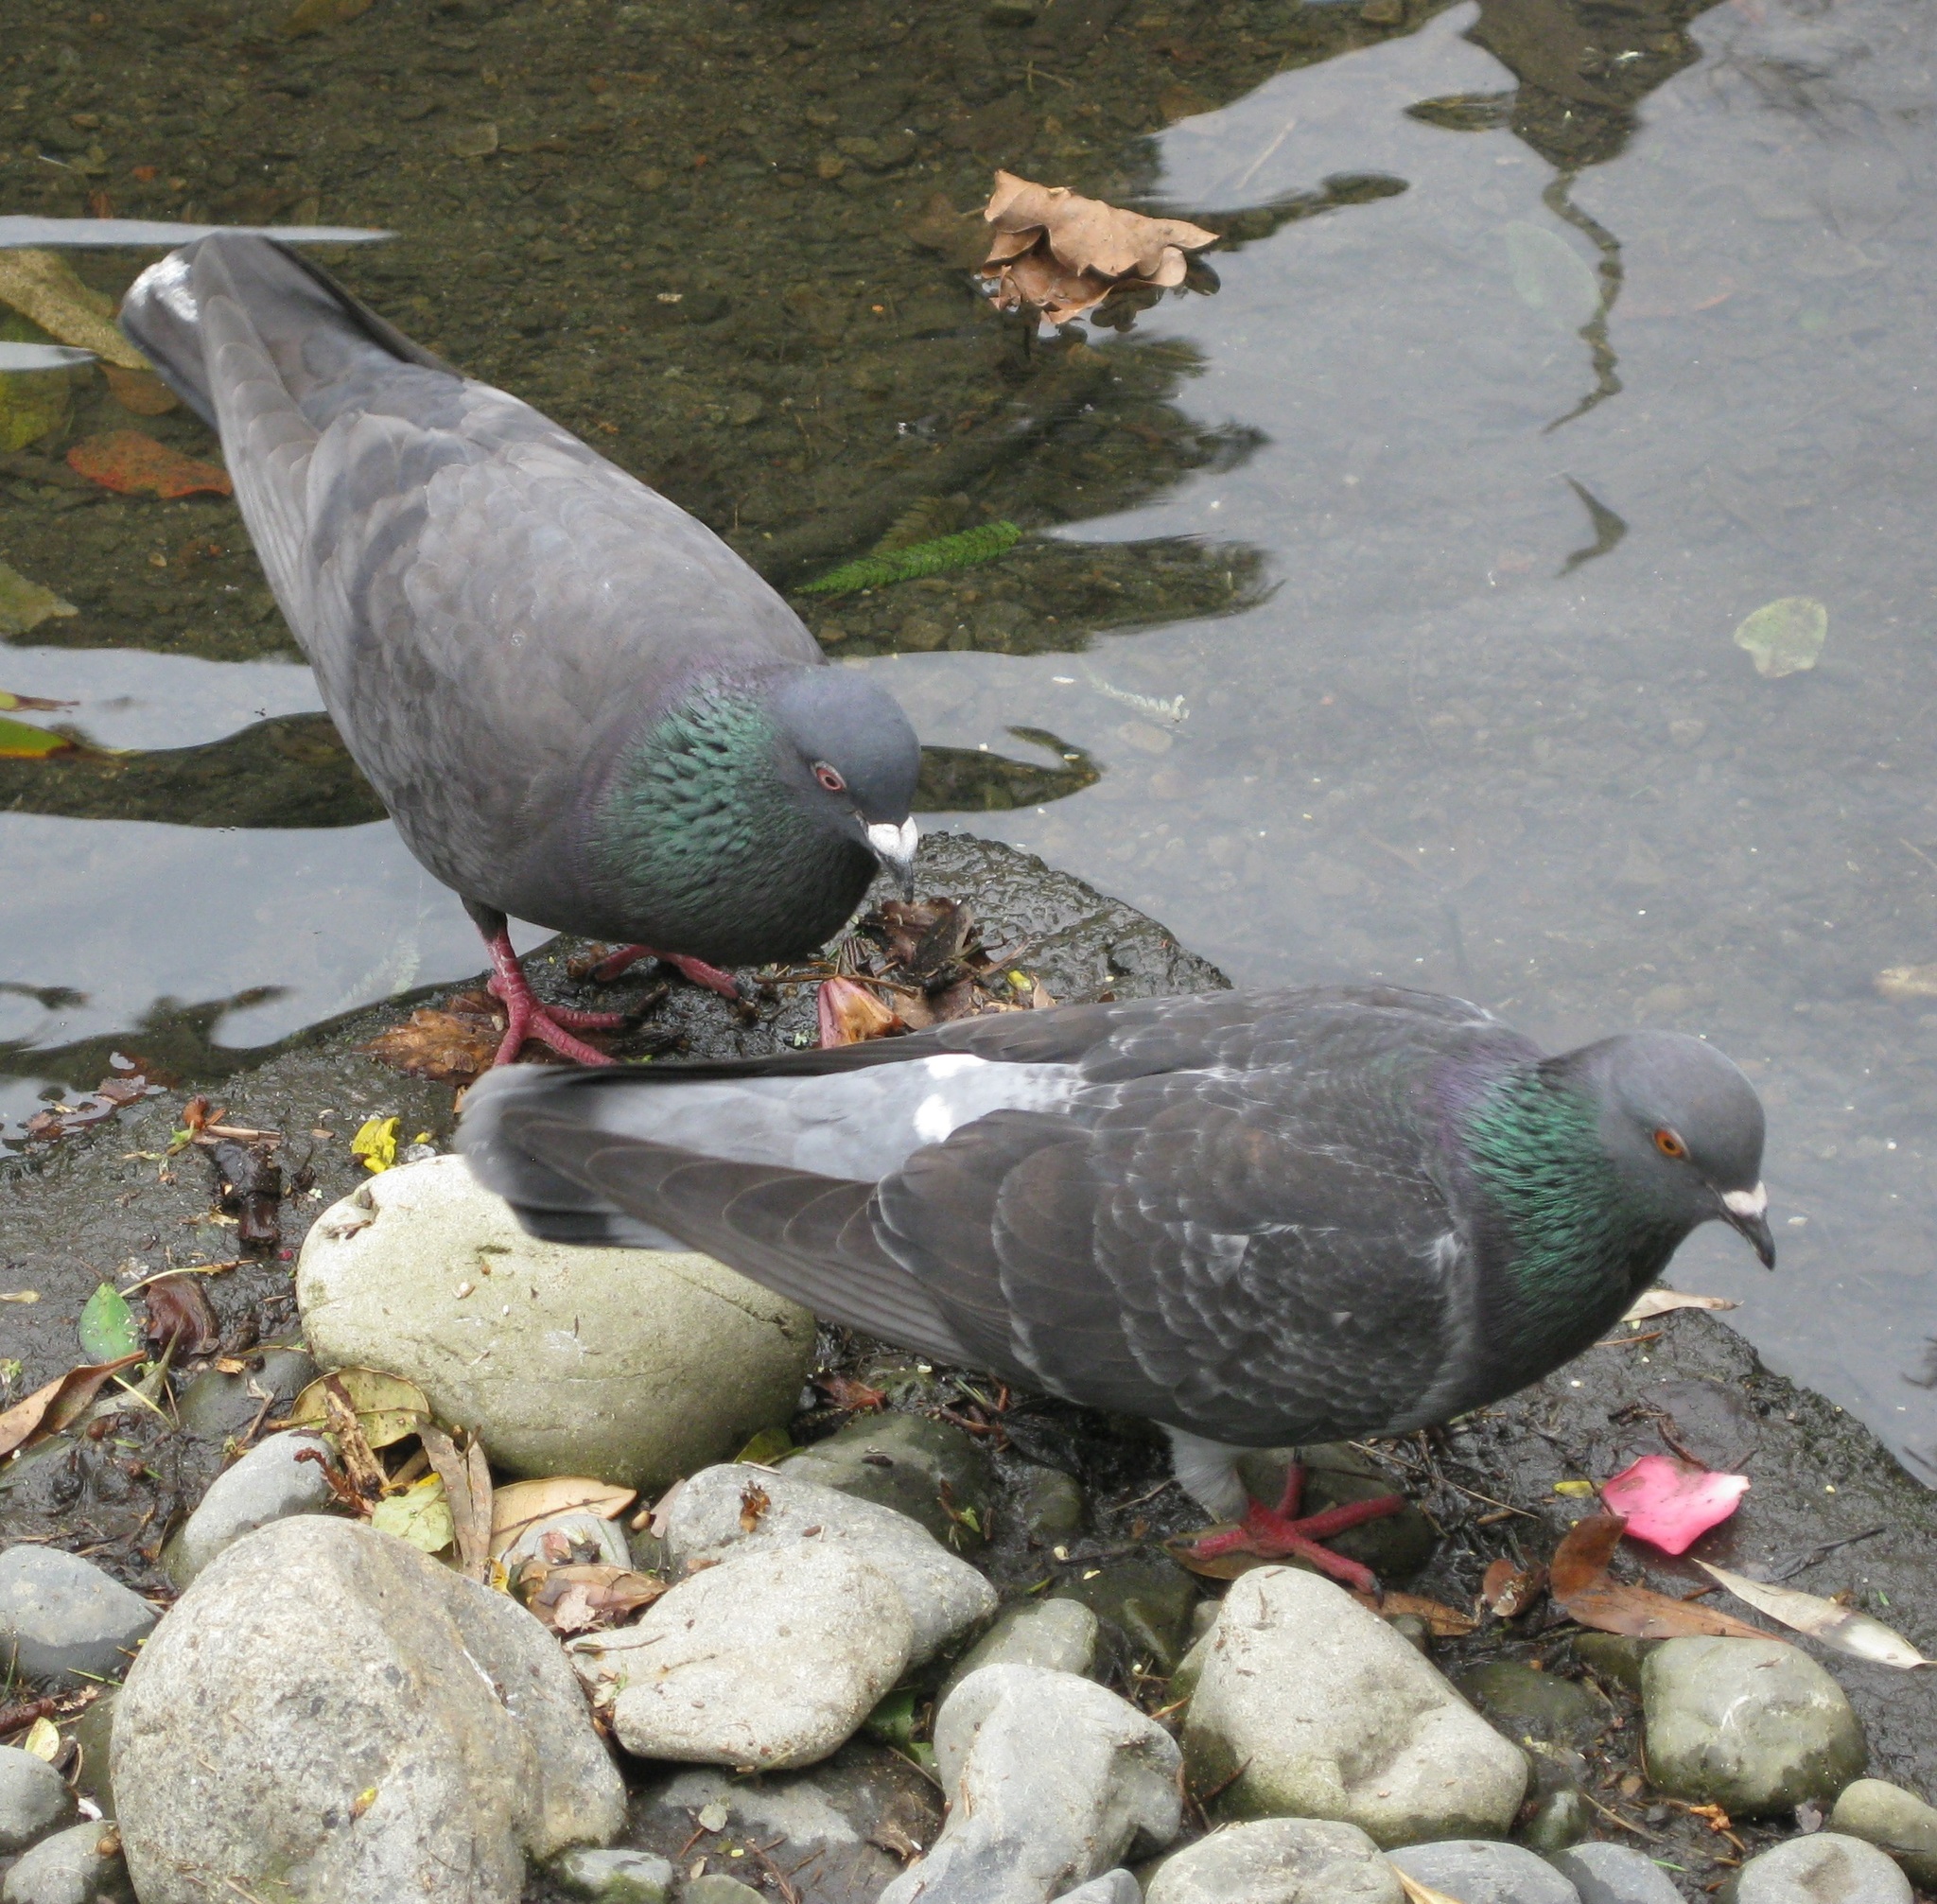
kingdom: Animalia
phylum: Chordata
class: Aves
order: Columbiformes
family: Columbidae
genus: Columba
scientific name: Columba livia
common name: Rock pigeon
